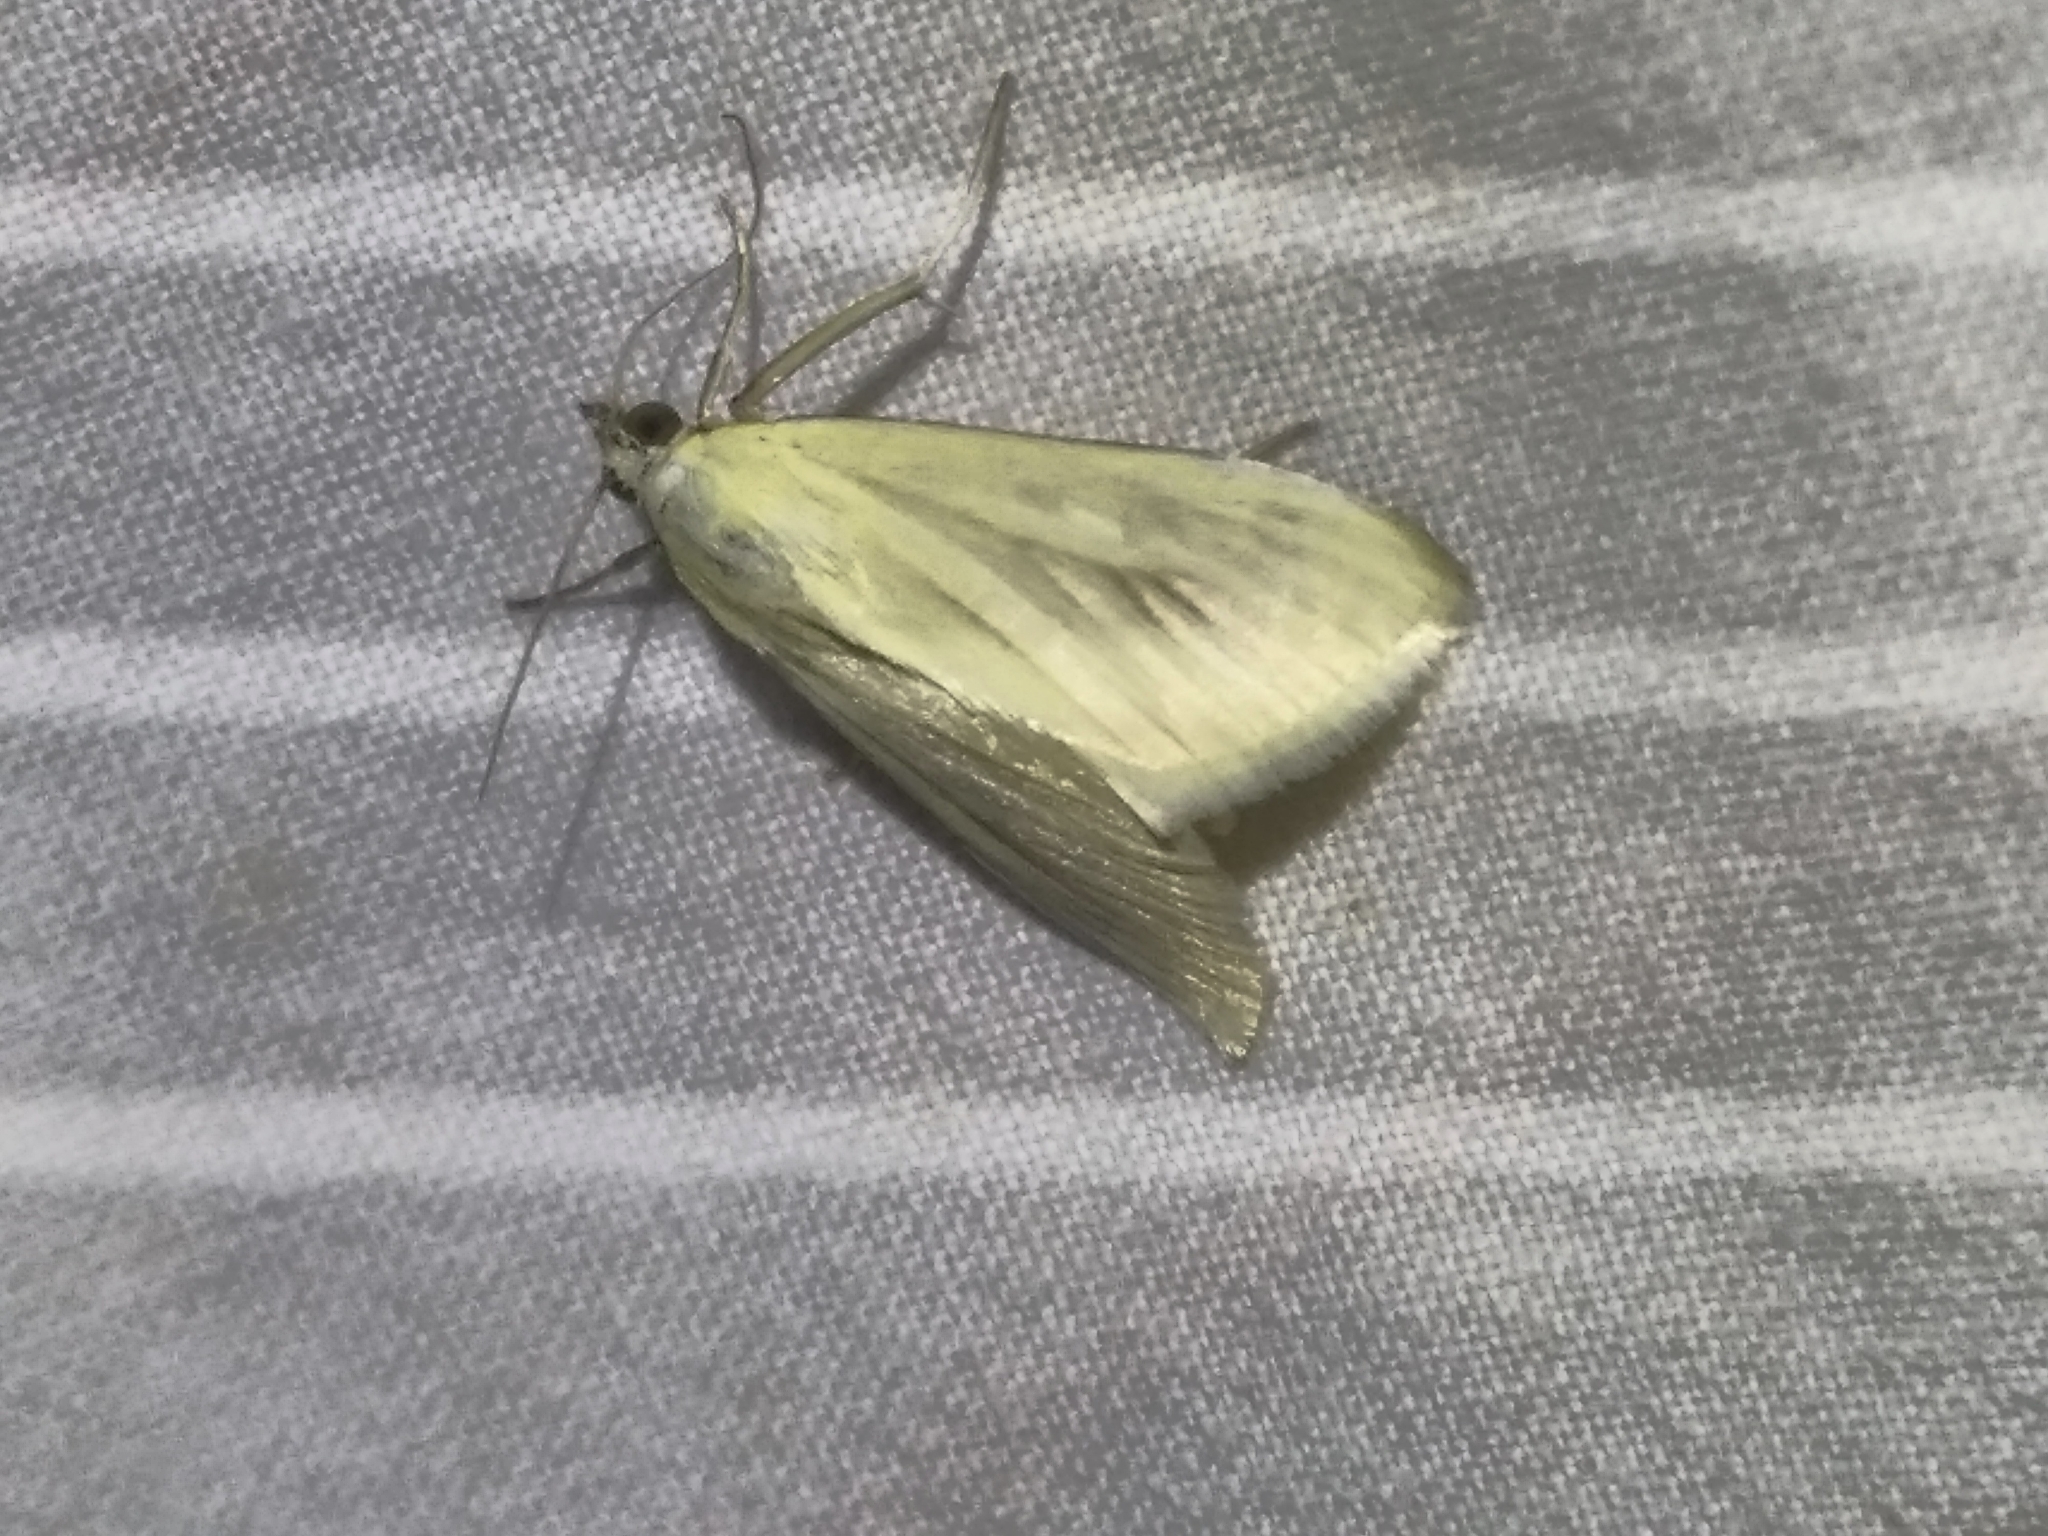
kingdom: Animalia
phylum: Arthropoda
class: Insecta
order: Lepidoptera
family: Crambidae
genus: Sitochroa
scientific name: Sitochroa palealis
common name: Greenish-yellow sitochroa moth
